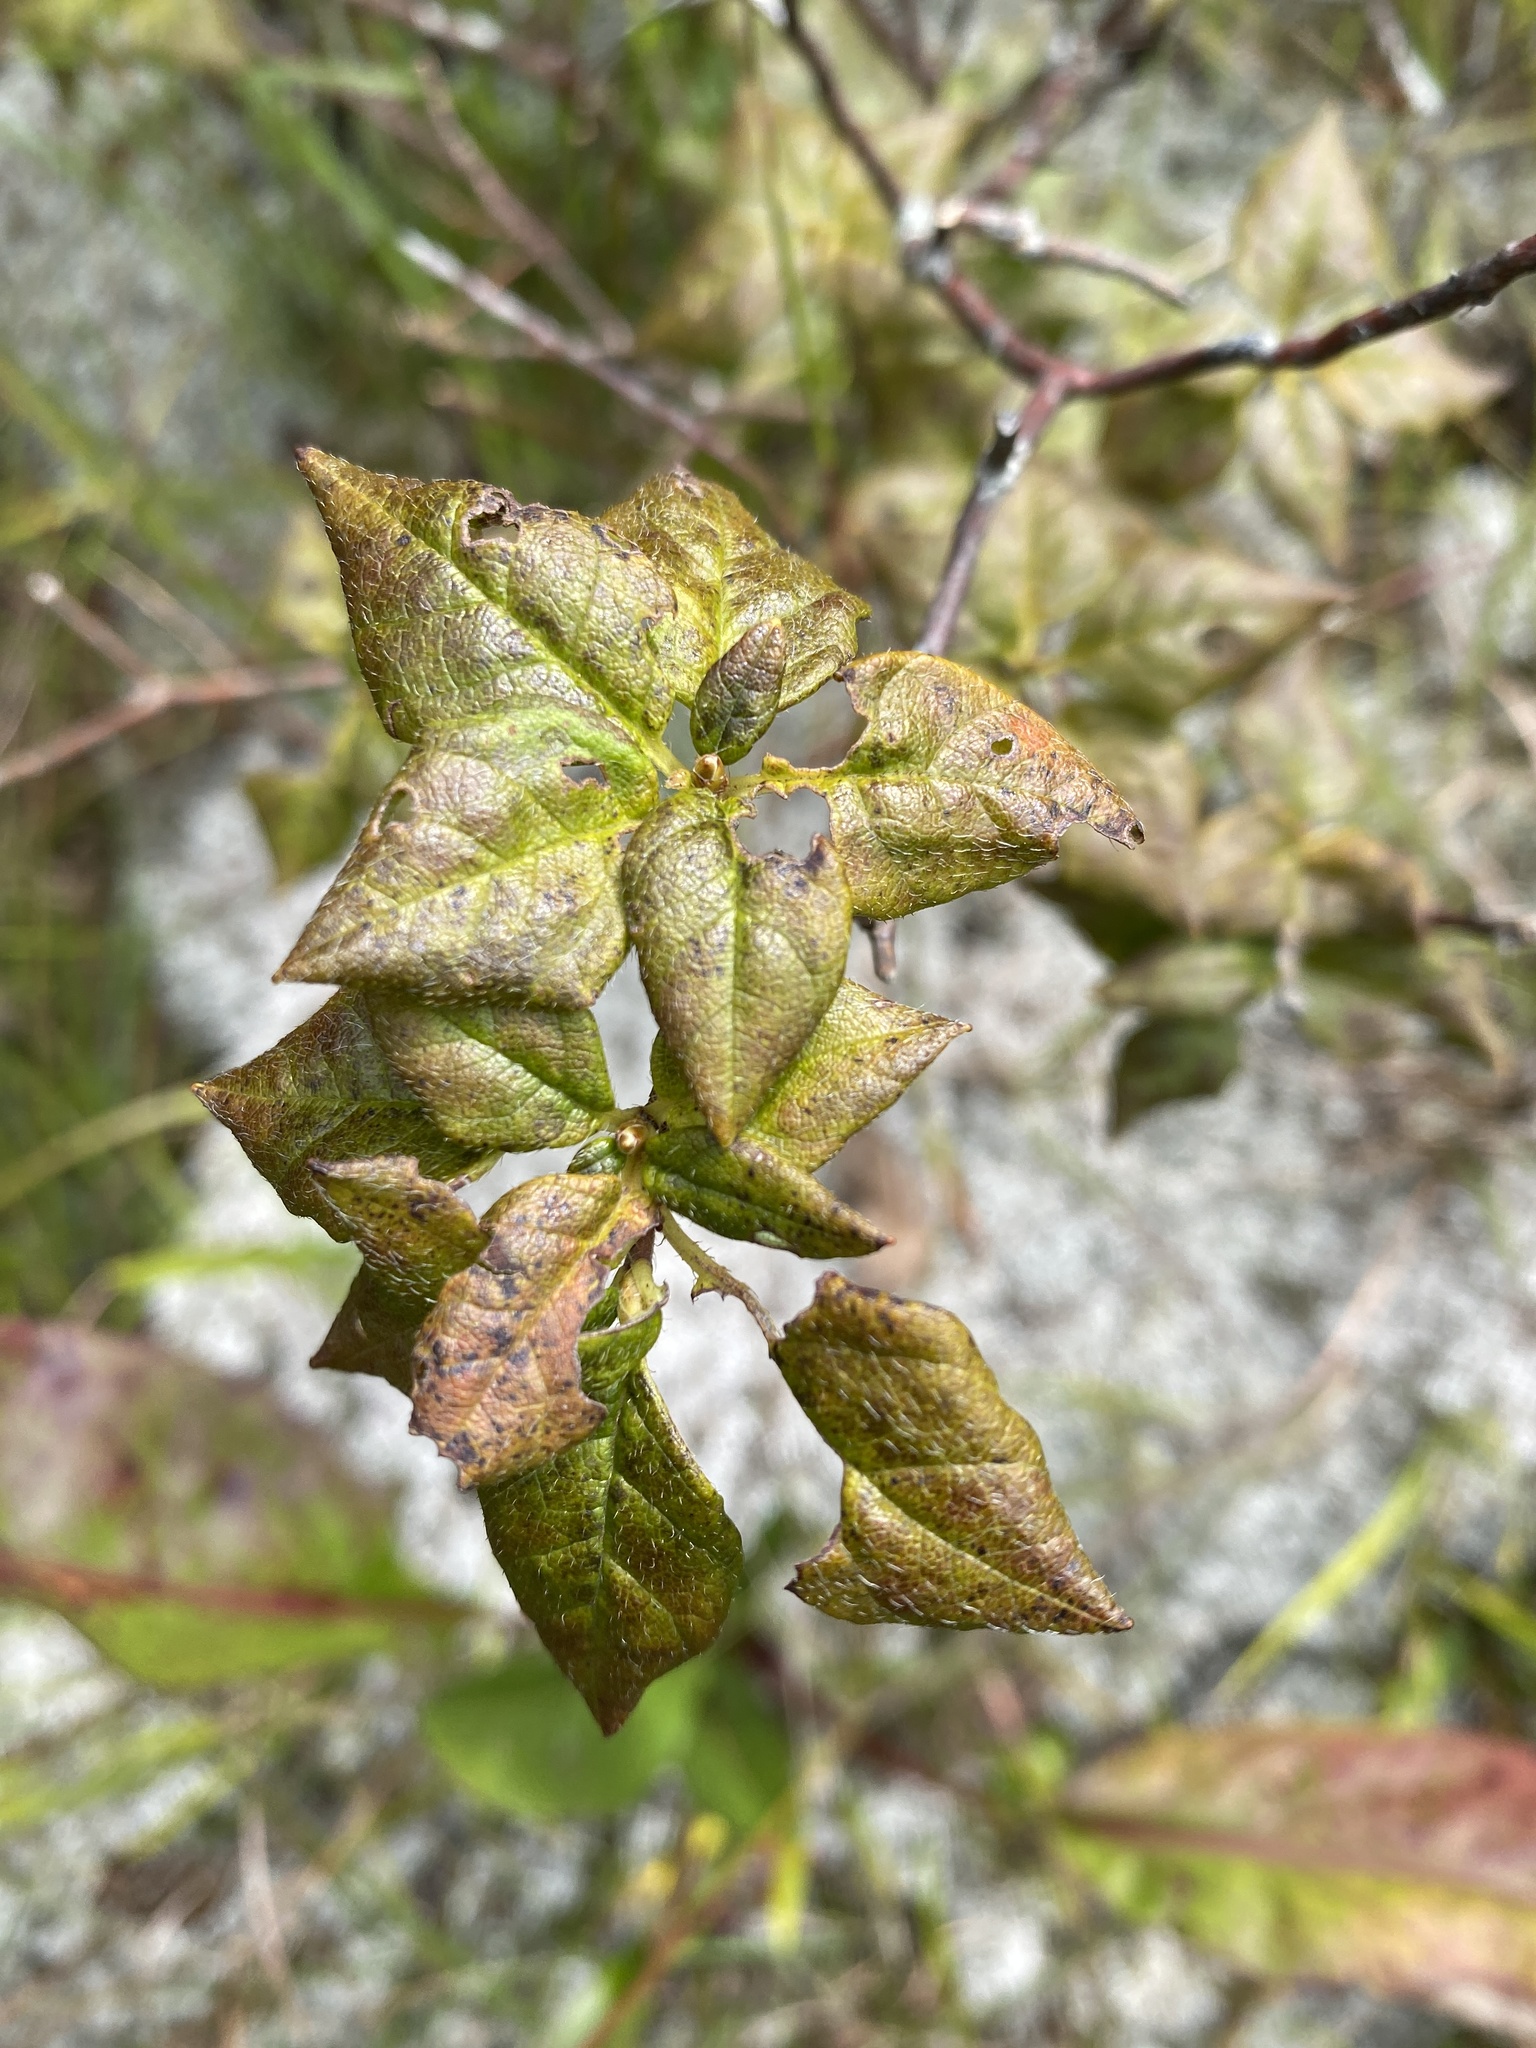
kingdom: Plantae
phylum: Tracheophyta
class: Magnoliopsida
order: Ericales
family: Ericaceae
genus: Rhododendron
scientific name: Rhododendron pilosum
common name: Hairy minniebush
